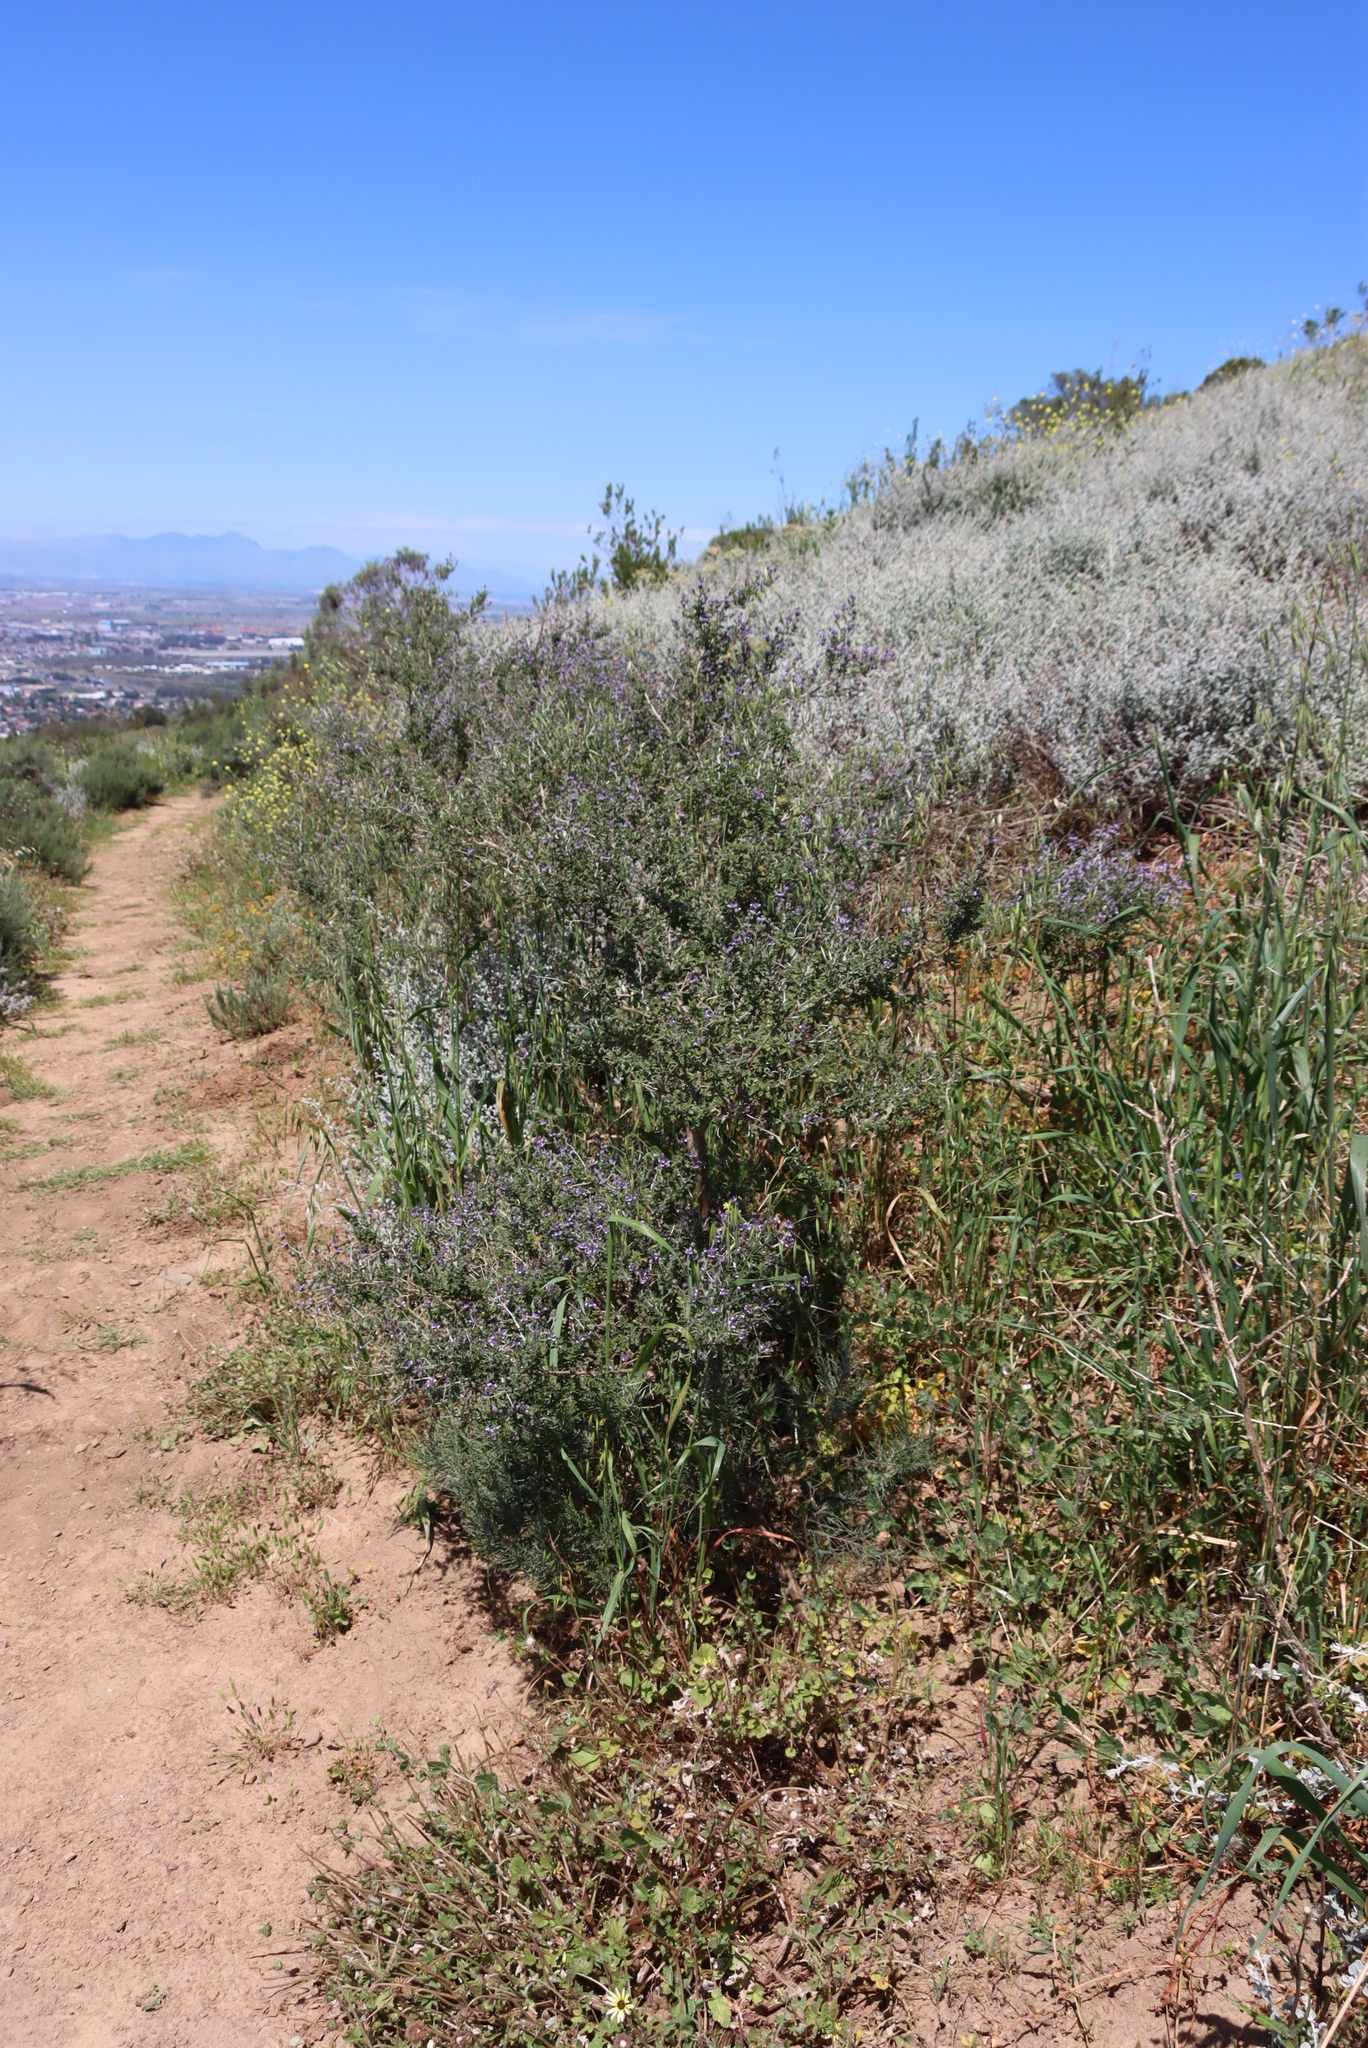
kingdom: Plantae
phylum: Tracheophyta
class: Magnoliopsida
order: Fabales
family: Fabaceae
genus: Psoralea
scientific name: Psoralea hirta
